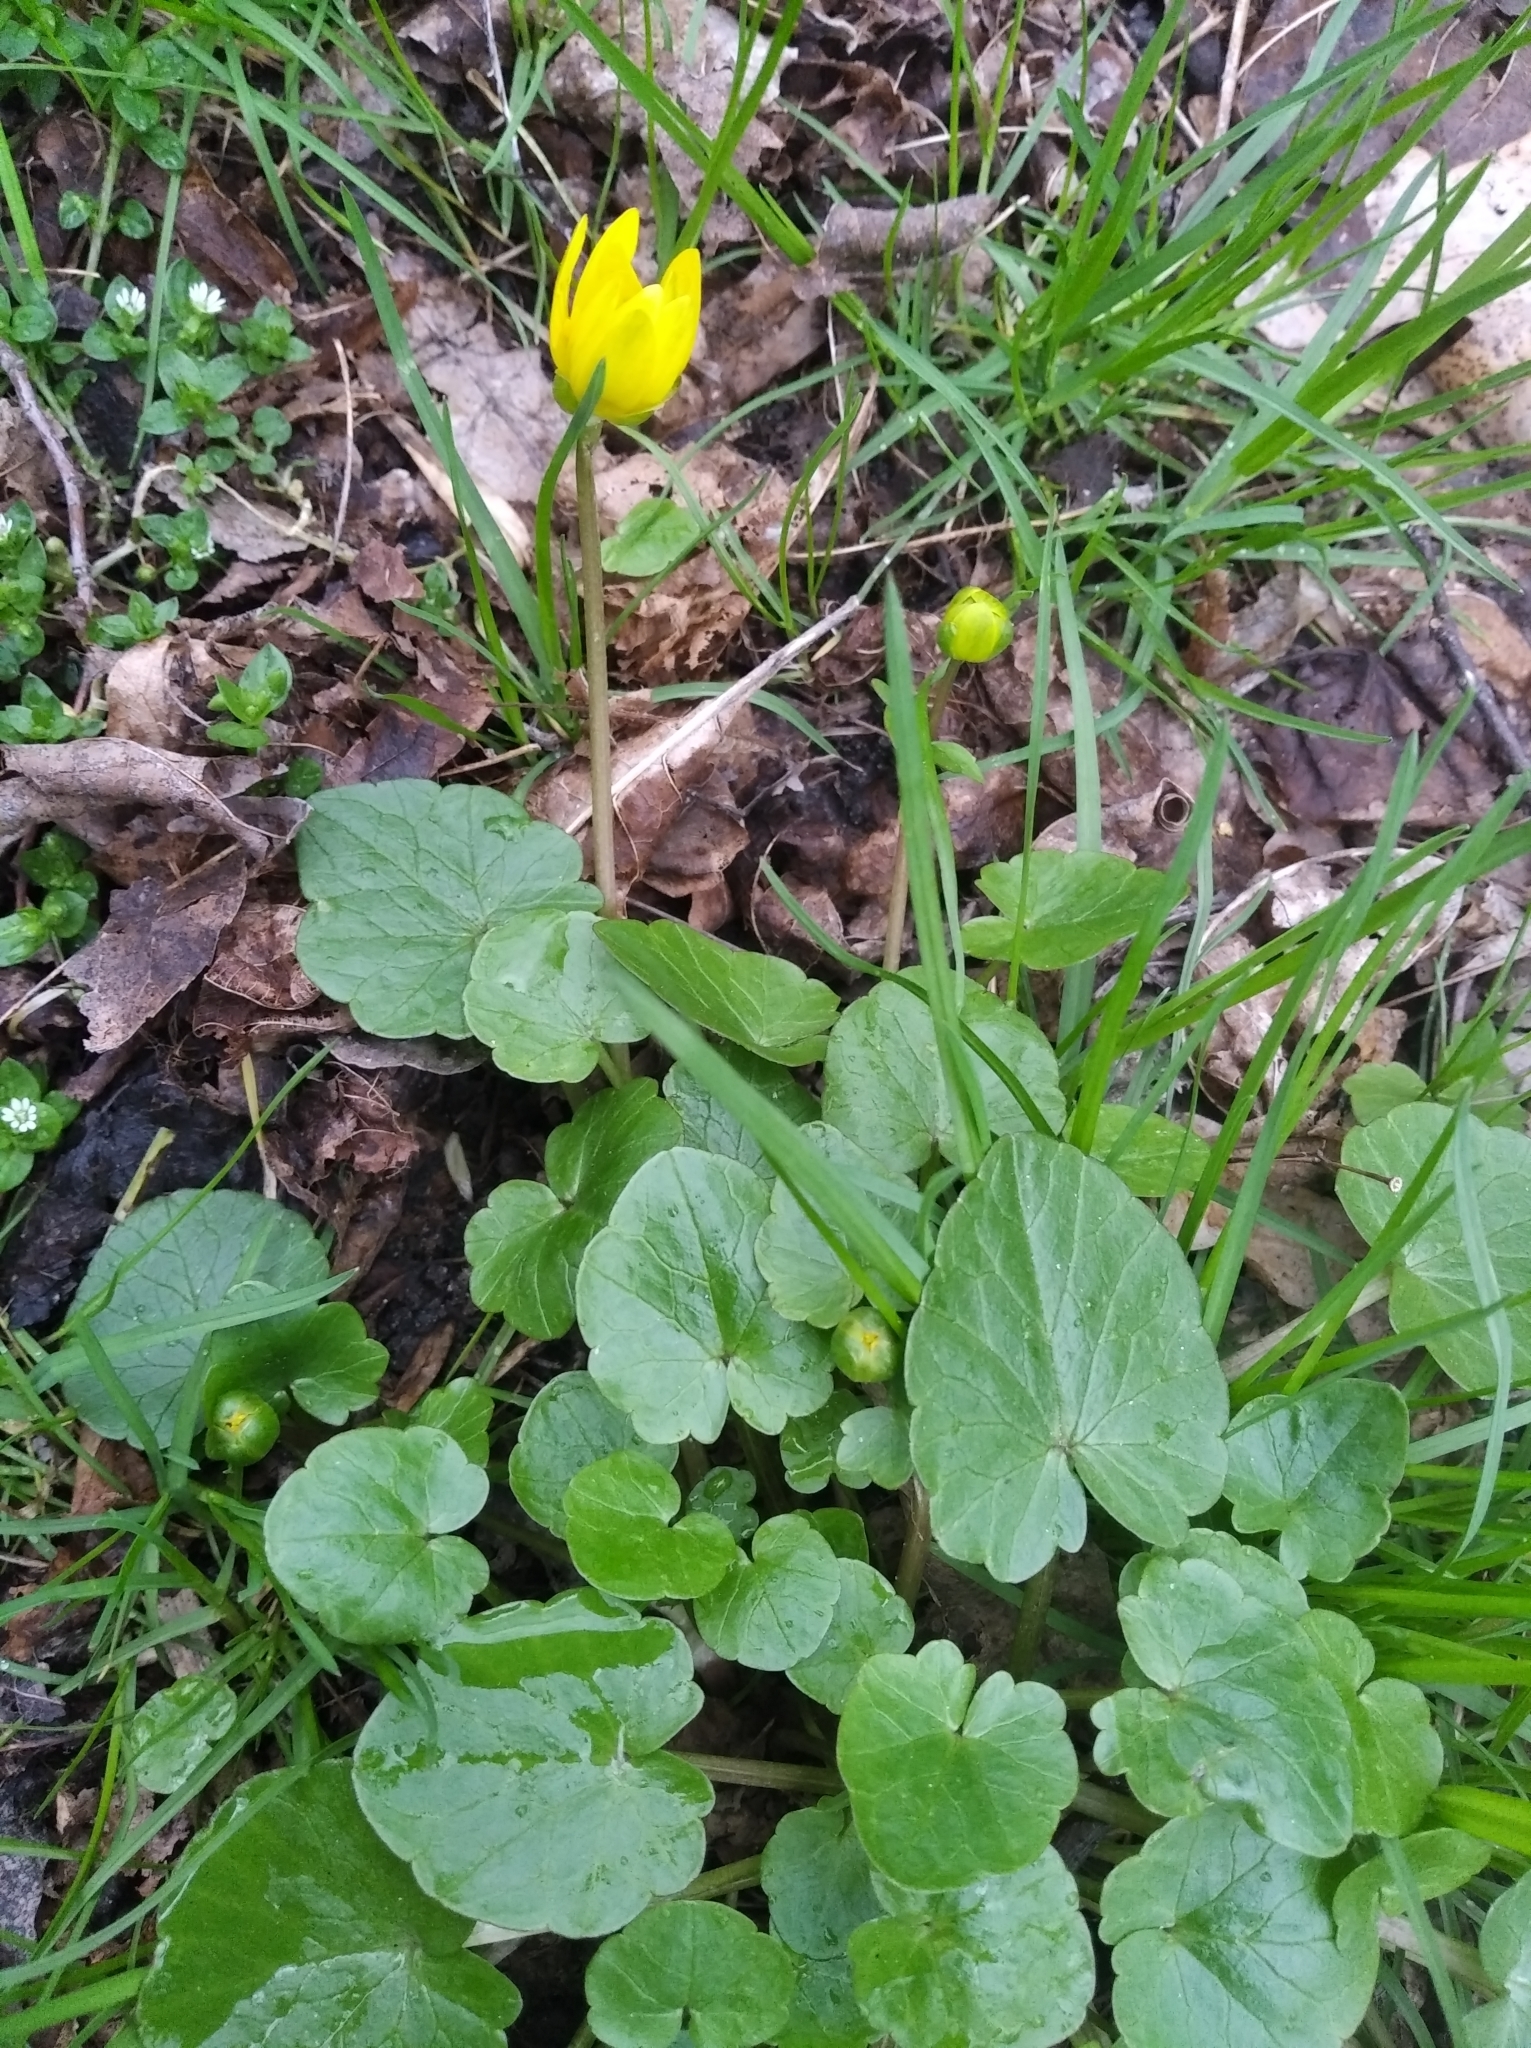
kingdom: Plantae
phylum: Tracheophyta
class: Magnoliopsida
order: Ranunculales
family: Ranunculaceae
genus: Ficaria
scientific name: Ficaria verna
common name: Lesser celandine
